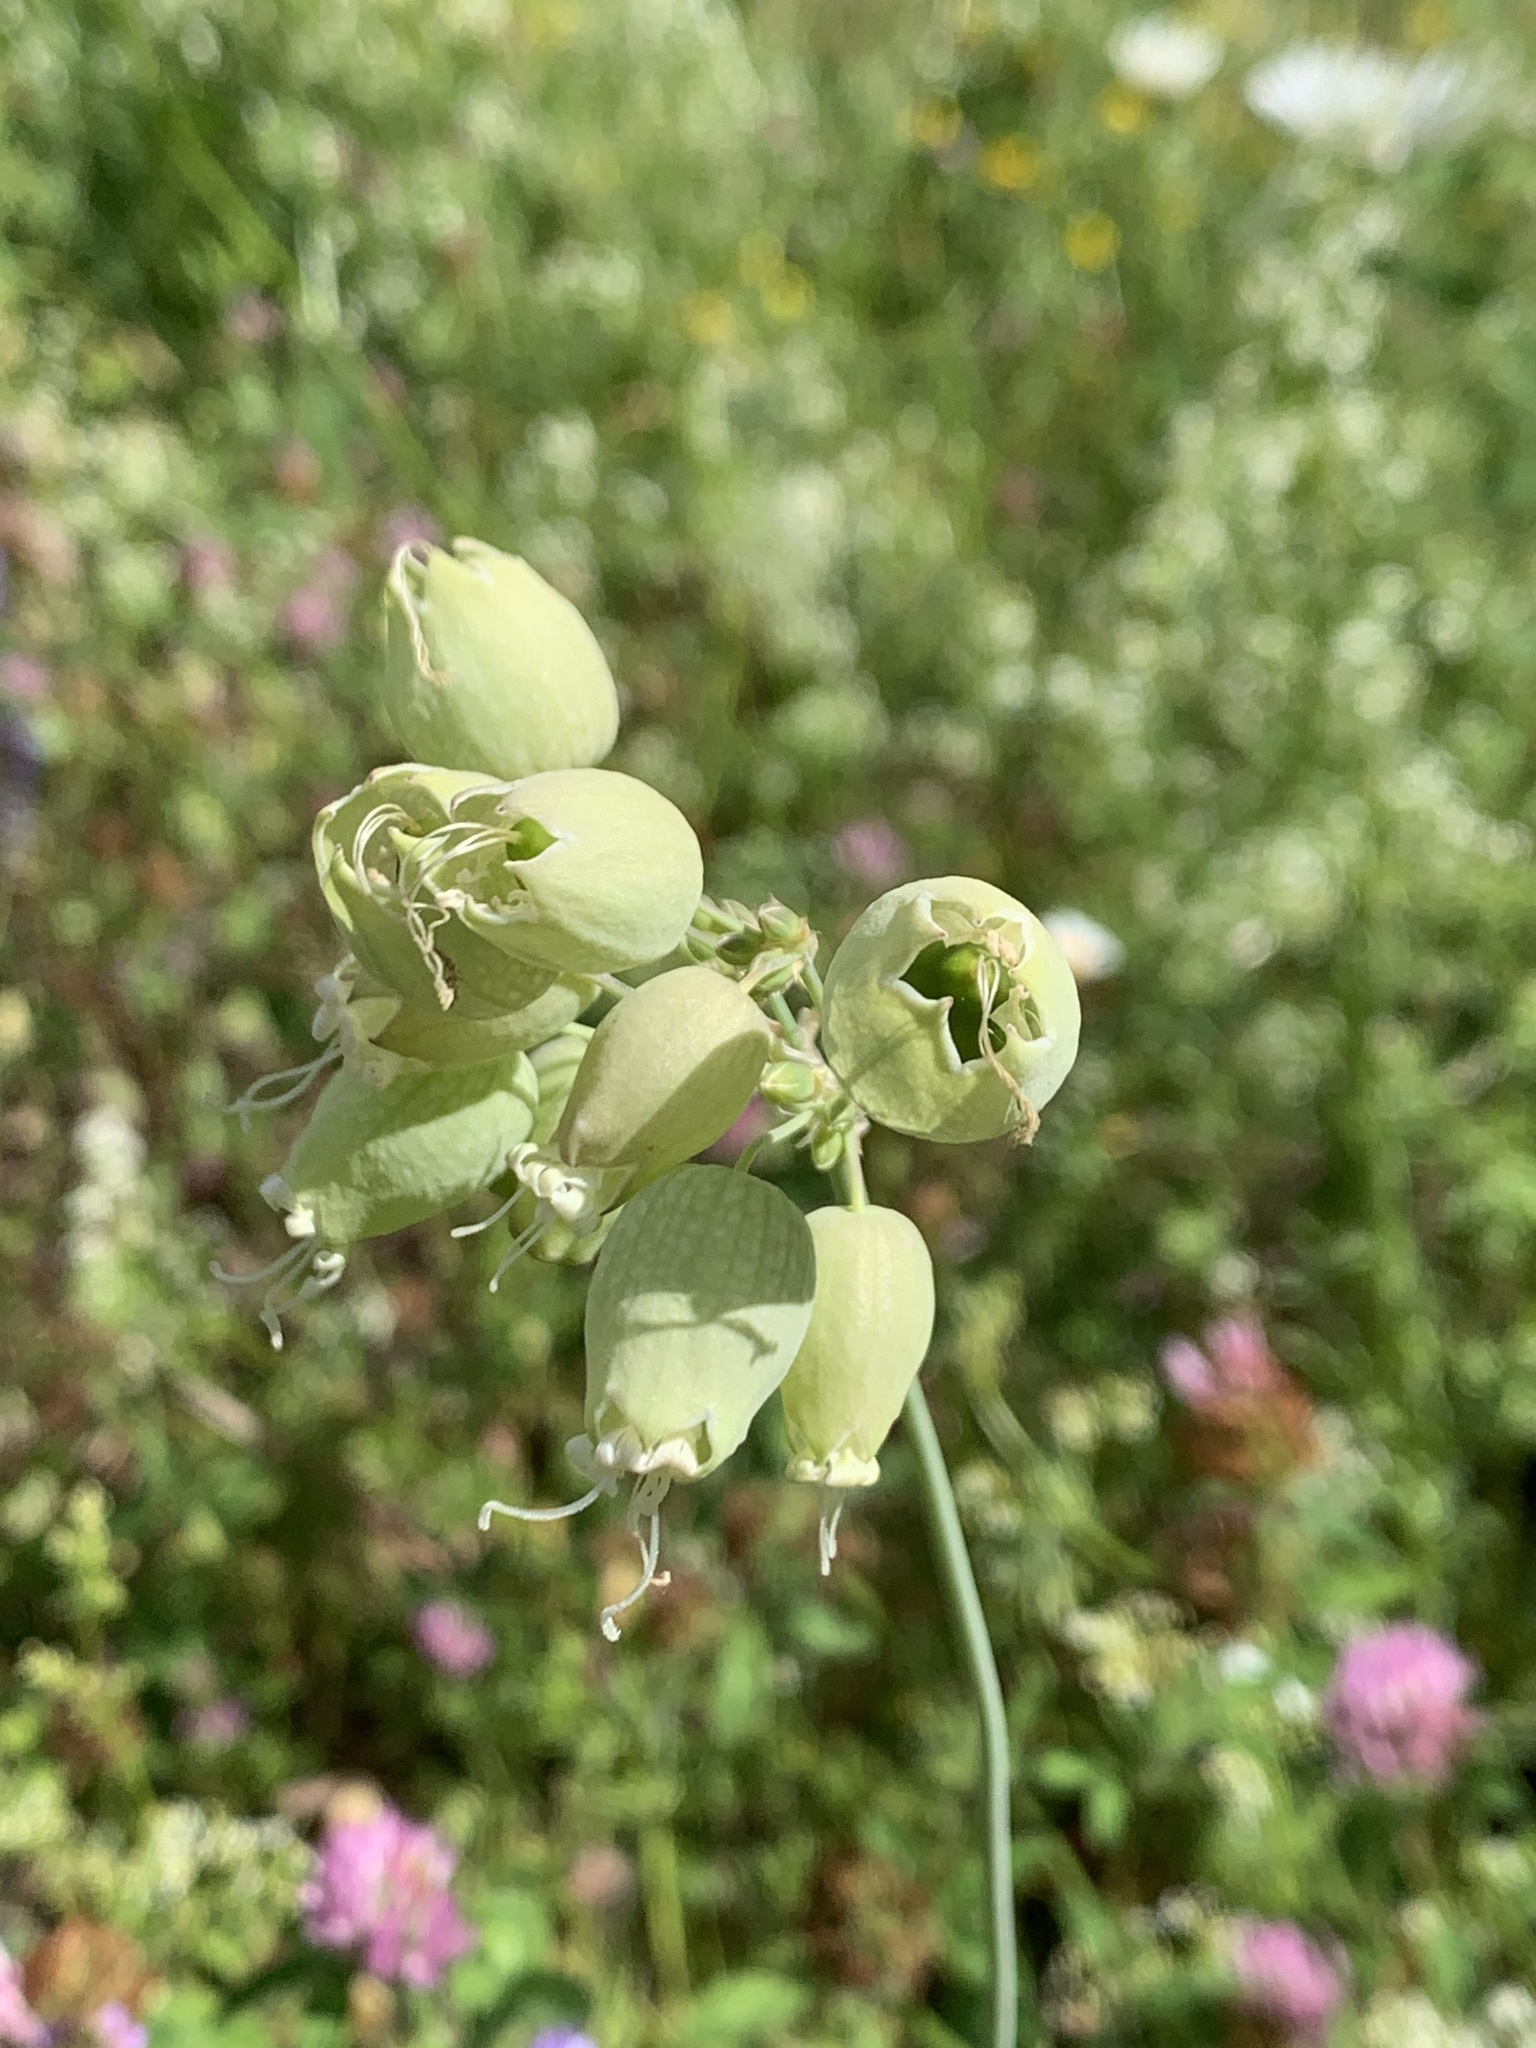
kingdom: Plantae
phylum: Tracheophyta
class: Magnoliopsida
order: Caryophyllales
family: Caryophyllaceae
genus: Silene
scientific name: Silene vulgaris
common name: Bladder campion
